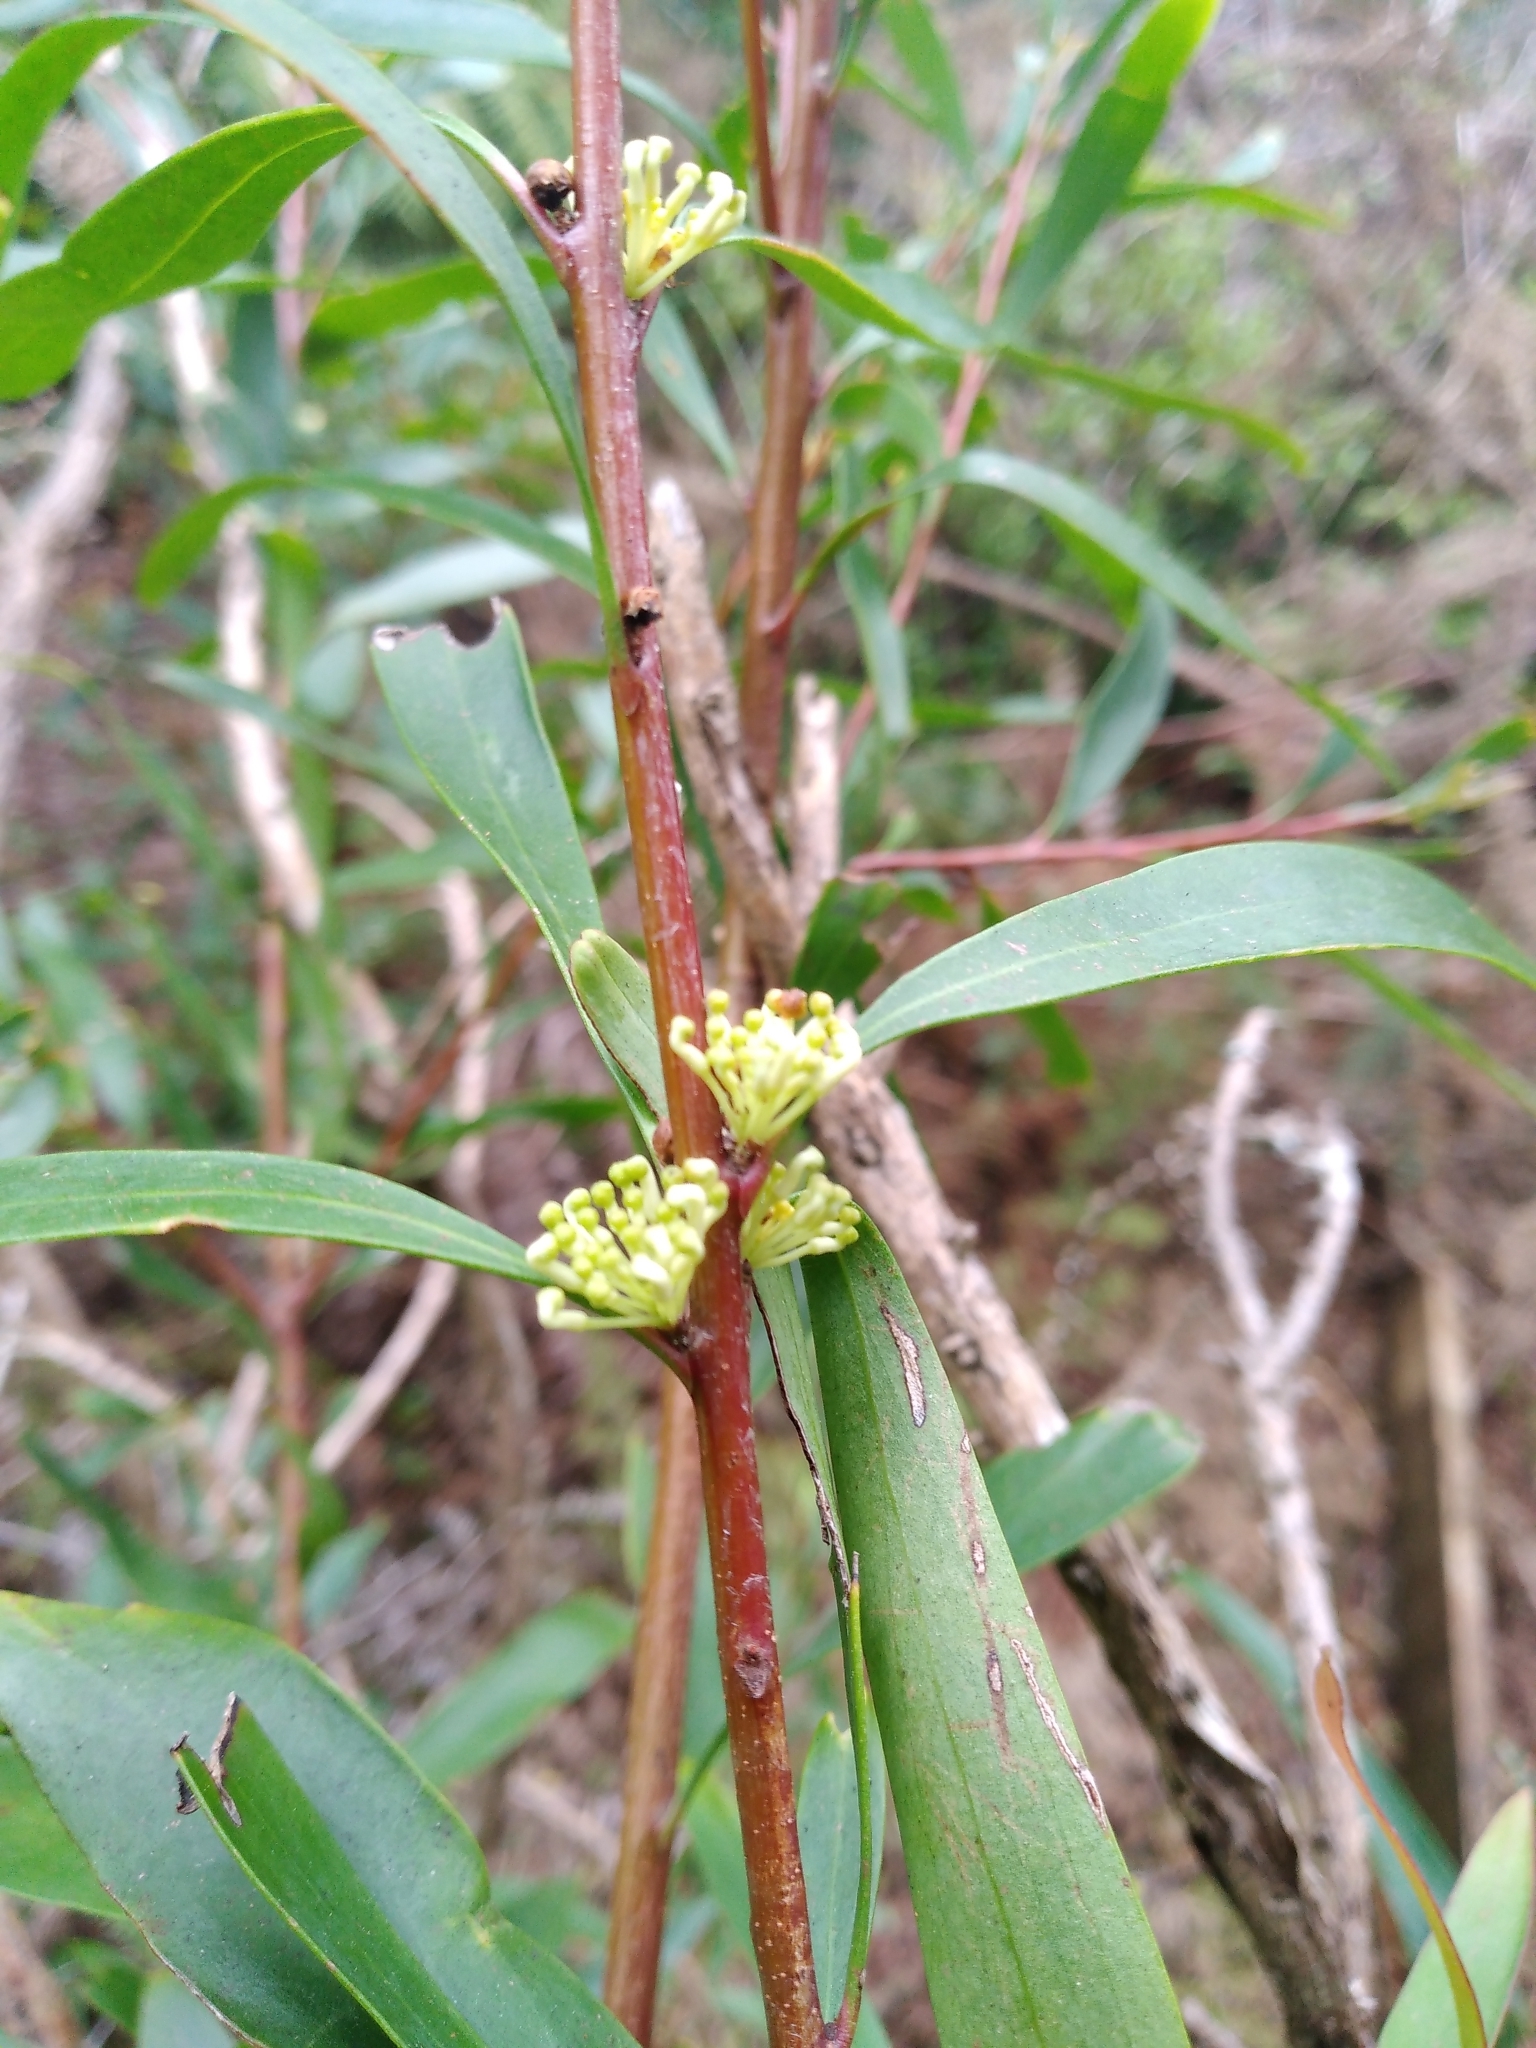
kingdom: Plantae
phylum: Tracheophyta
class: Magnoliopsida
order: Proteales
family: Proteaceae
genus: Hakea
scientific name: Hakea salicifolia
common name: Willow hakea
